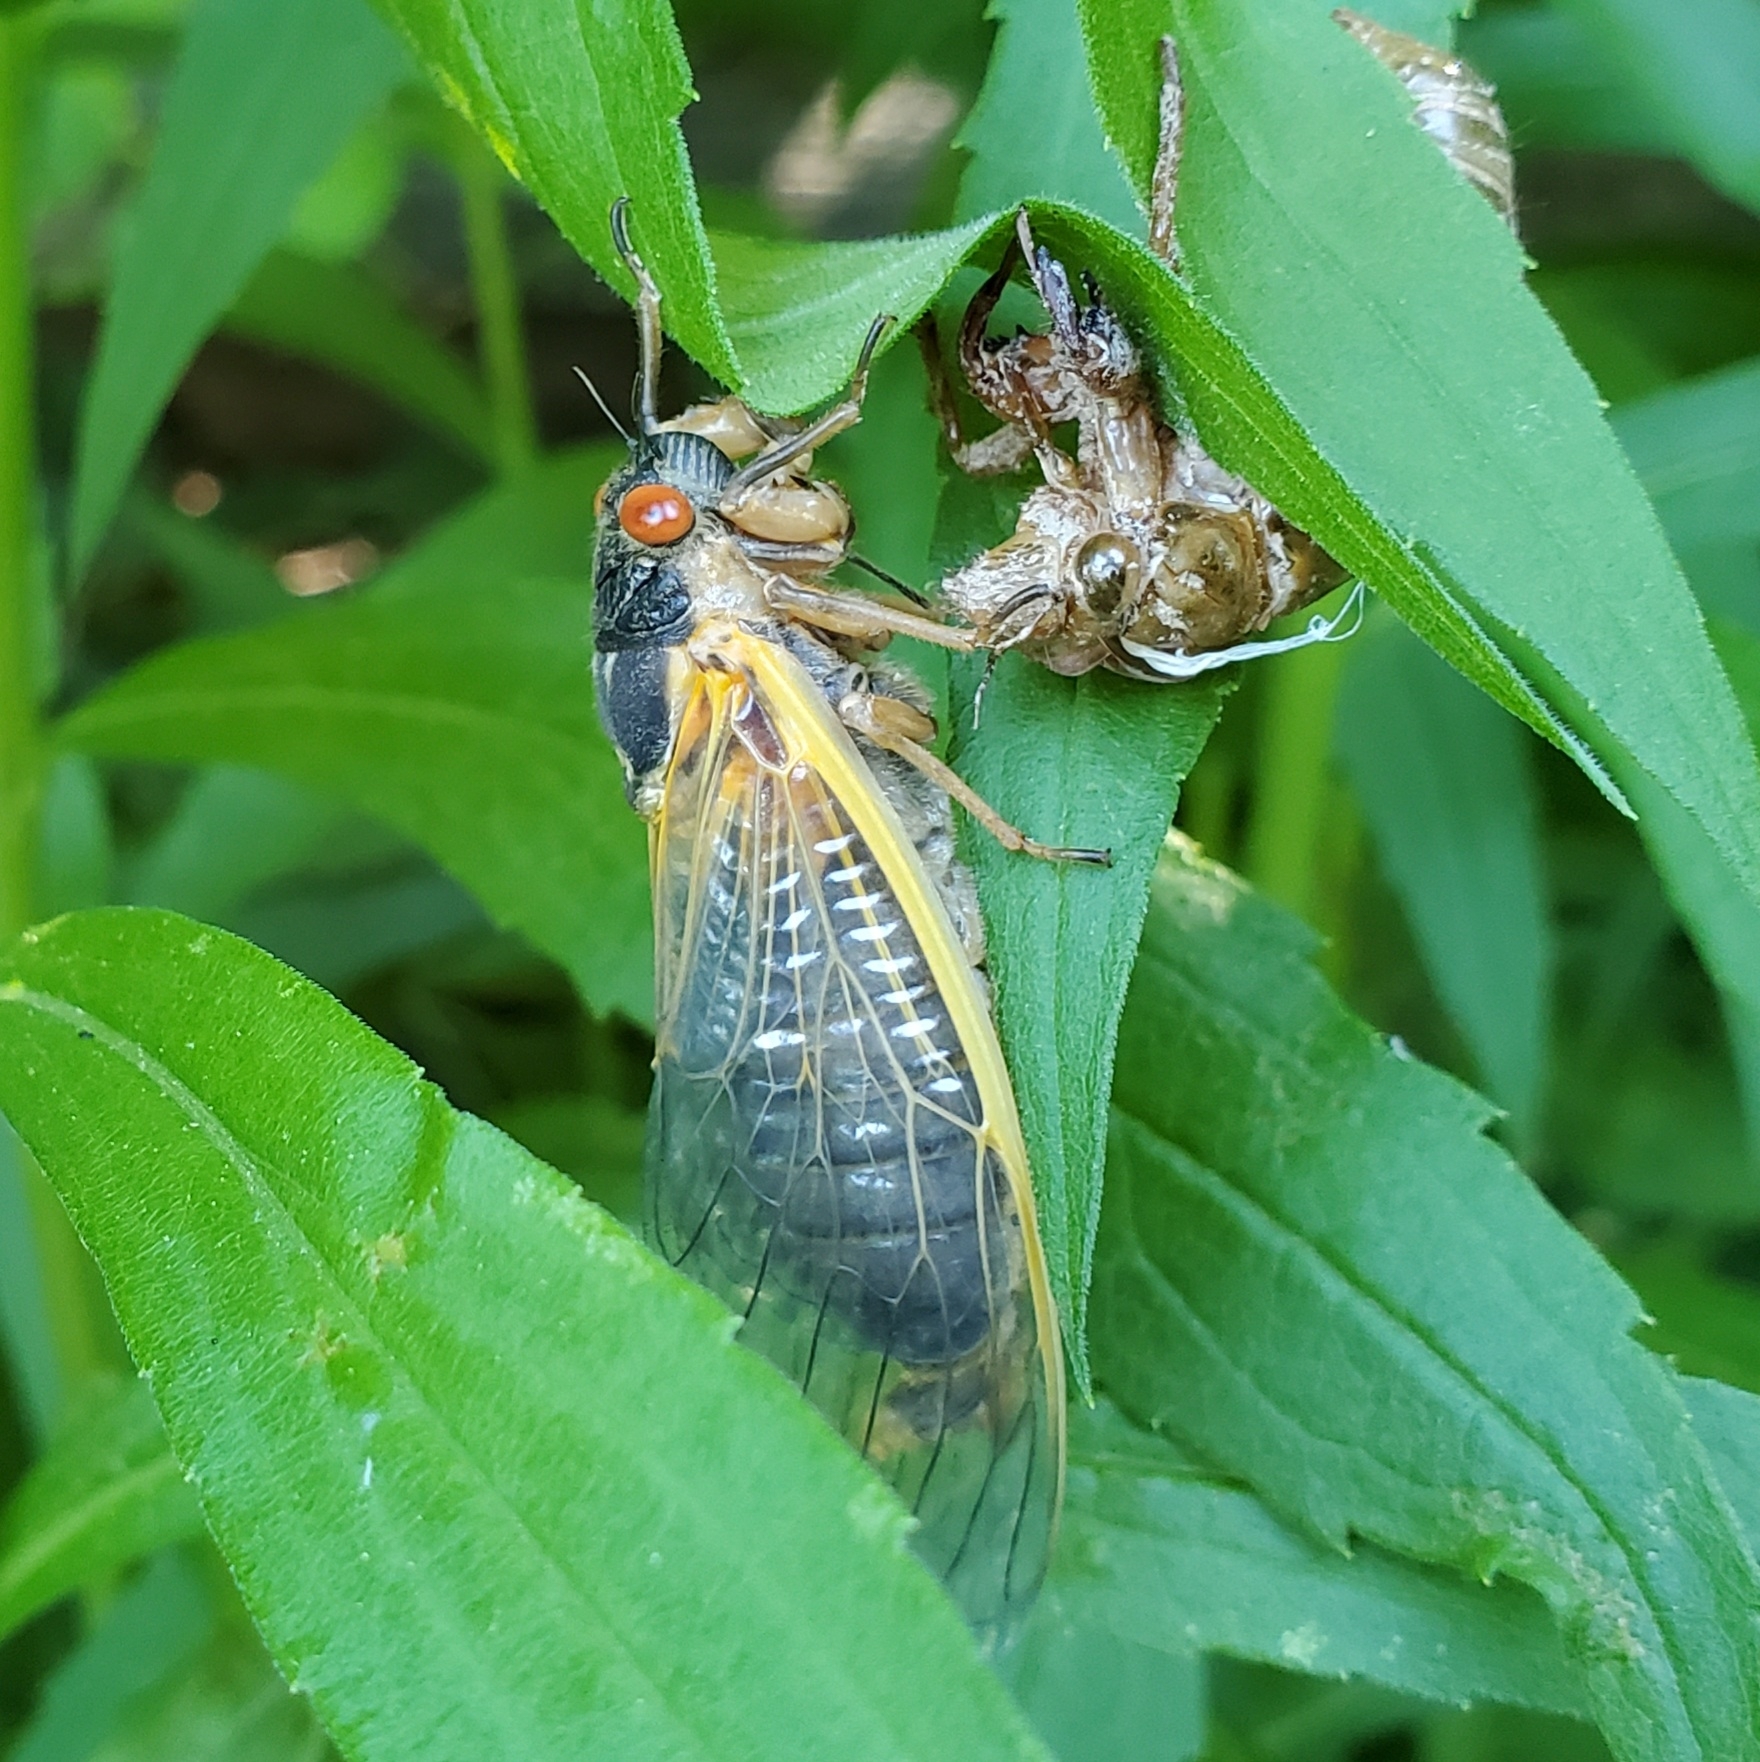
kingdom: Animalia
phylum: Arthropoda
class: Insecta
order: Hemiptera
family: Cicadidae
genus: Magicicada
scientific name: Magicicada septendecim
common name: Periodical cicada
